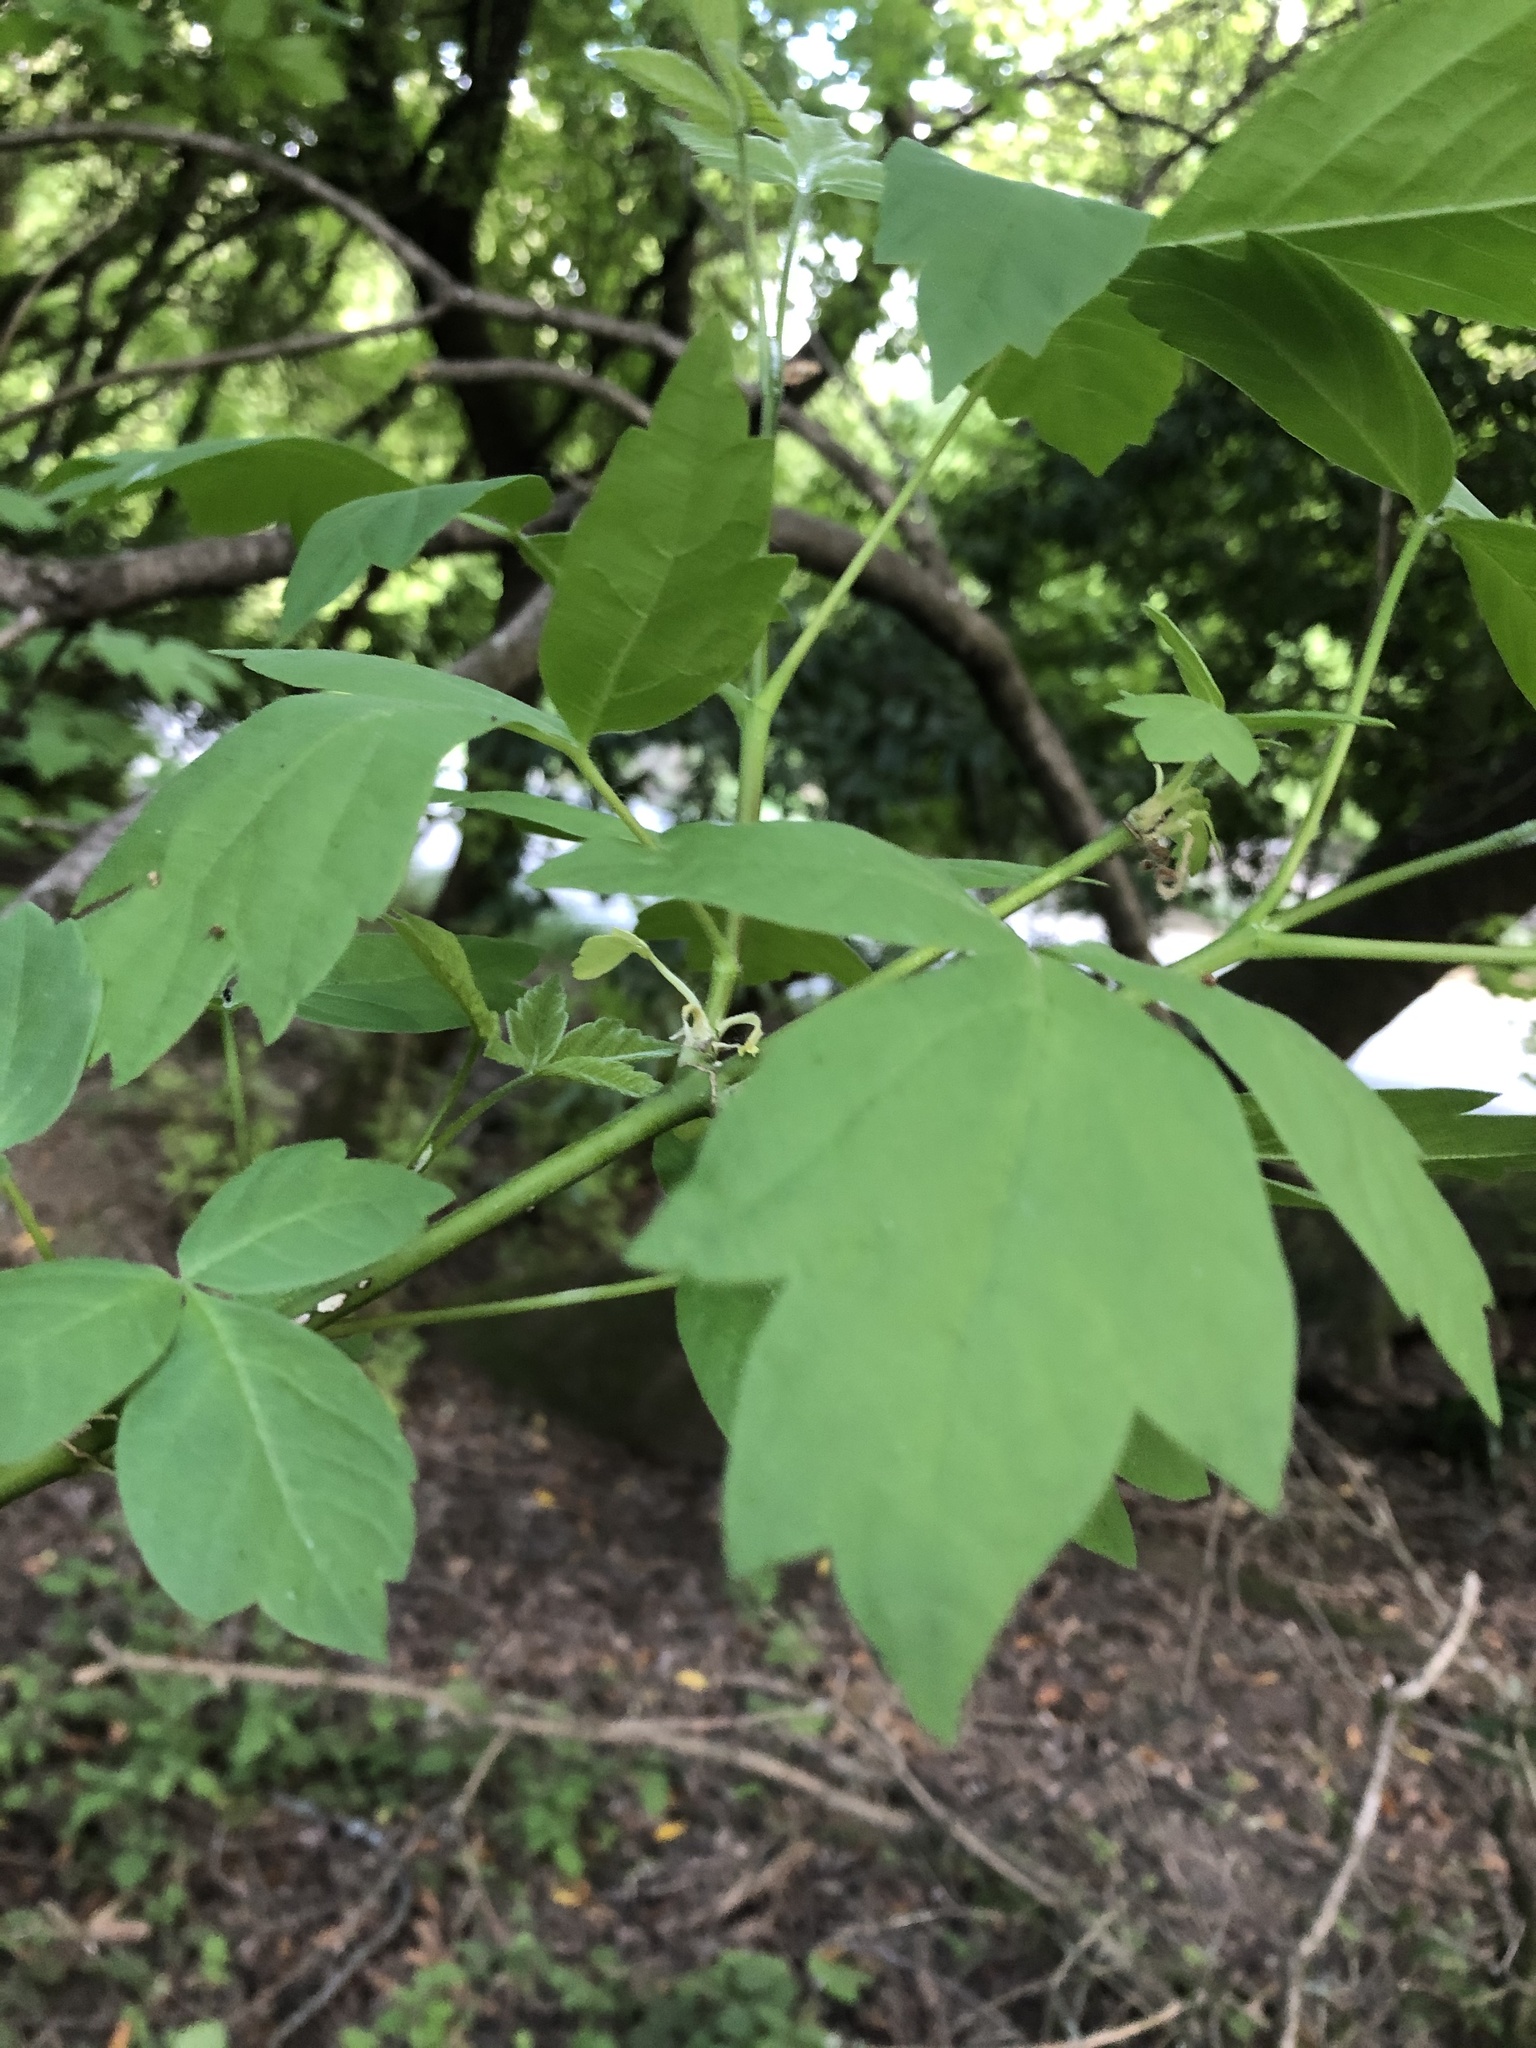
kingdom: Plantae
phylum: Tracheophyta
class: Magnoliopsida
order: Sapindales
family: Sapindaceae
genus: Acer
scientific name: Acer negundo
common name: Ashleaf maple
